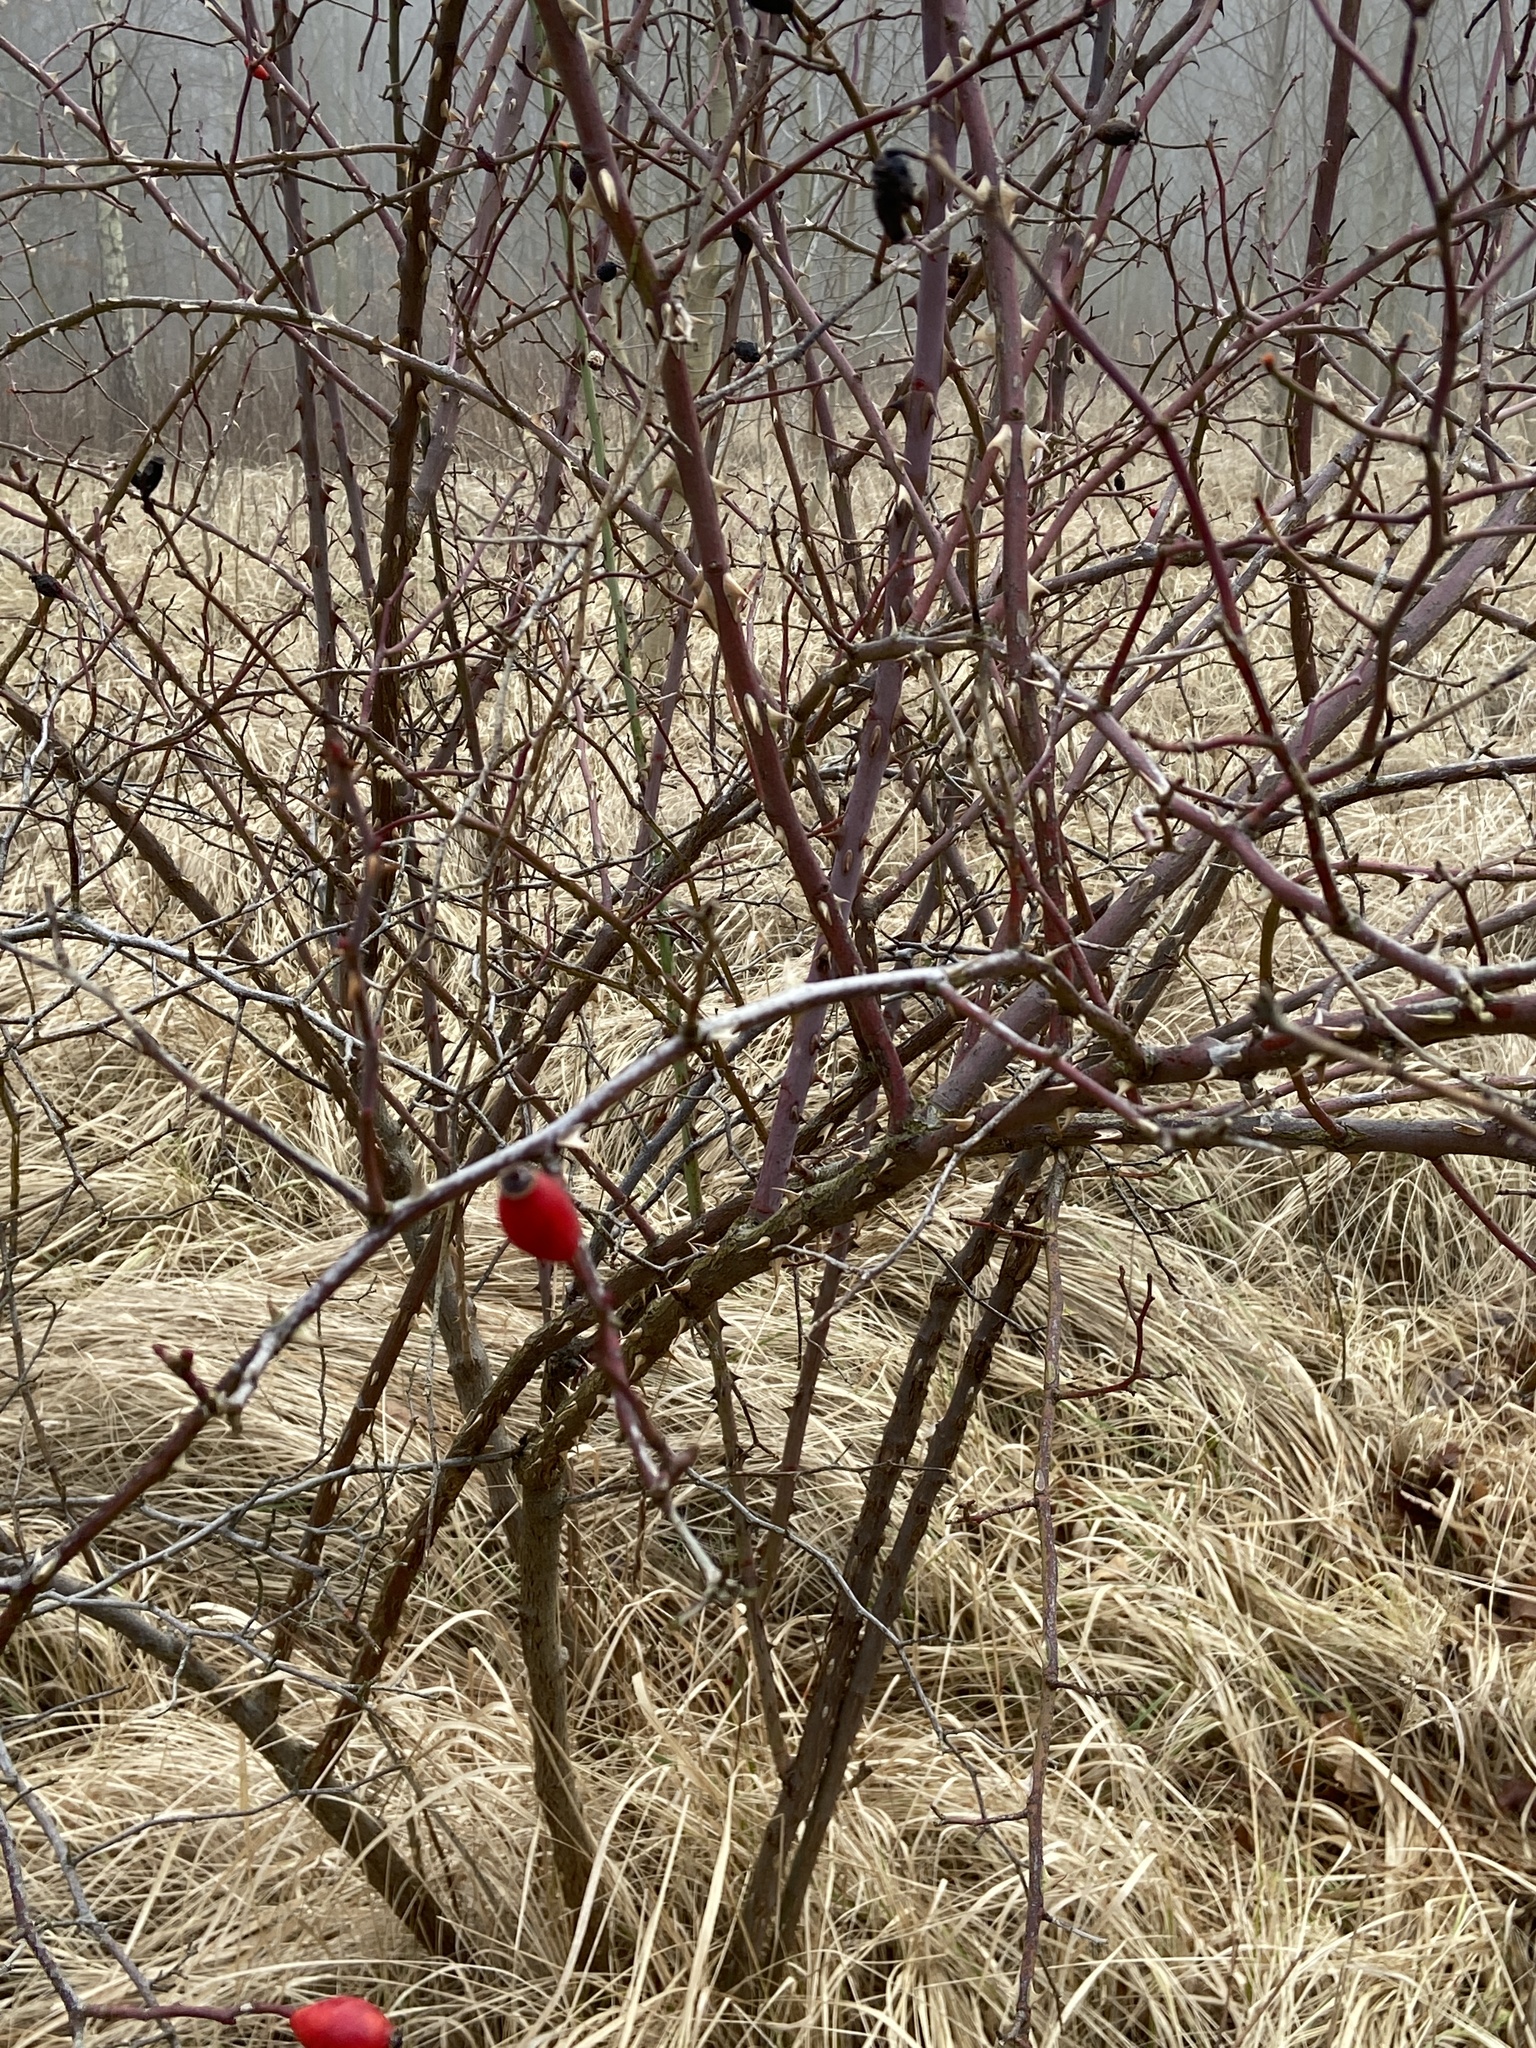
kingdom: Plantae
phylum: Tracheophyta
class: Magnoliopsida
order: Rosales
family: Rosaceae
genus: Rosa
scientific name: Rosa canina
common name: Dog rose
